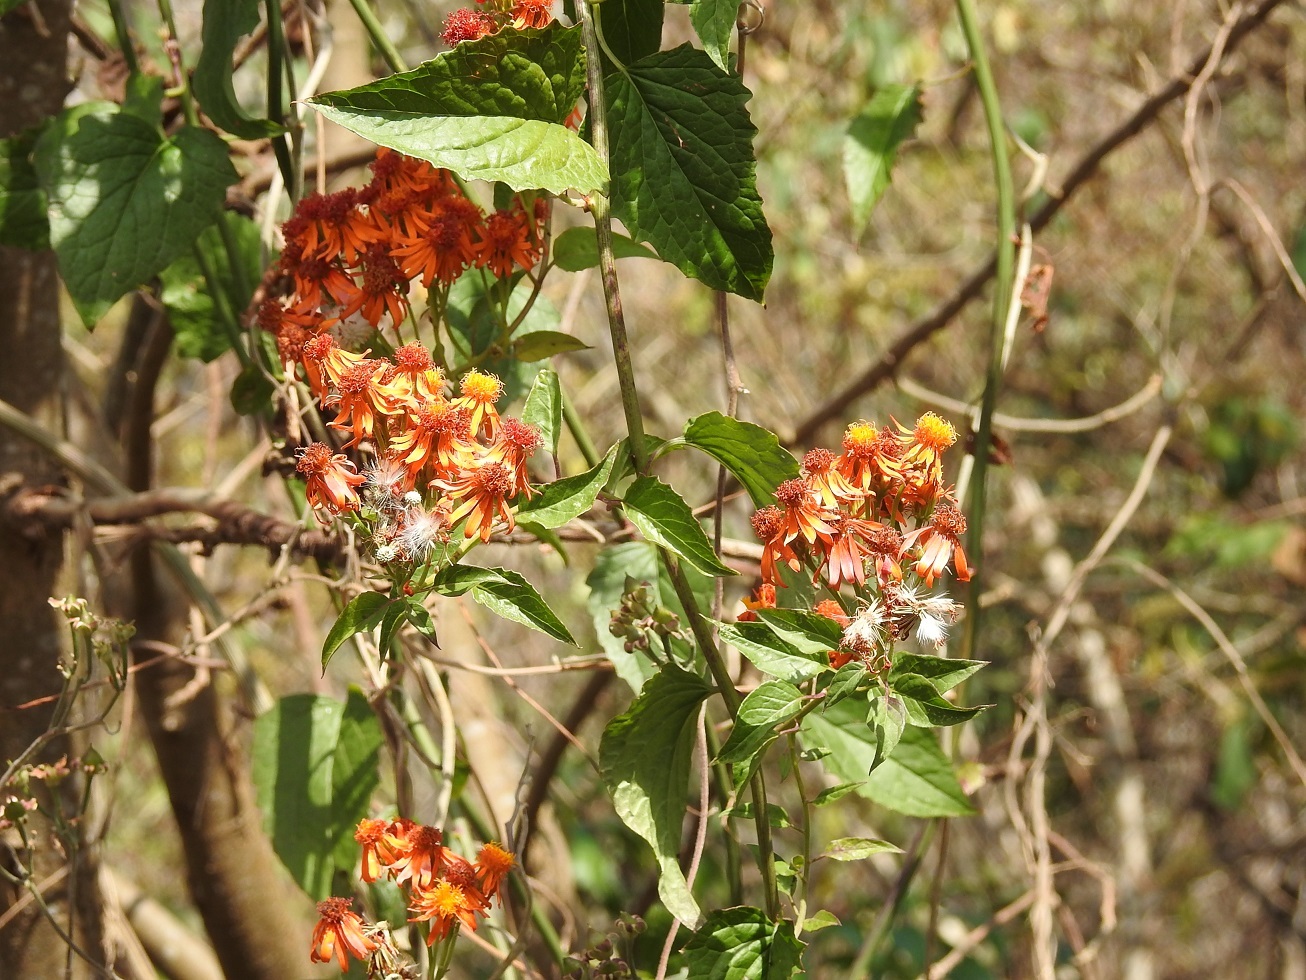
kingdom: Plantae
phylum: Tracheophyta
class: Magnoliopsida
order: Asterales
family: Asteraceae
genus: Pseudogynoxys
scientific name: Pseudogynoxys haenkei
